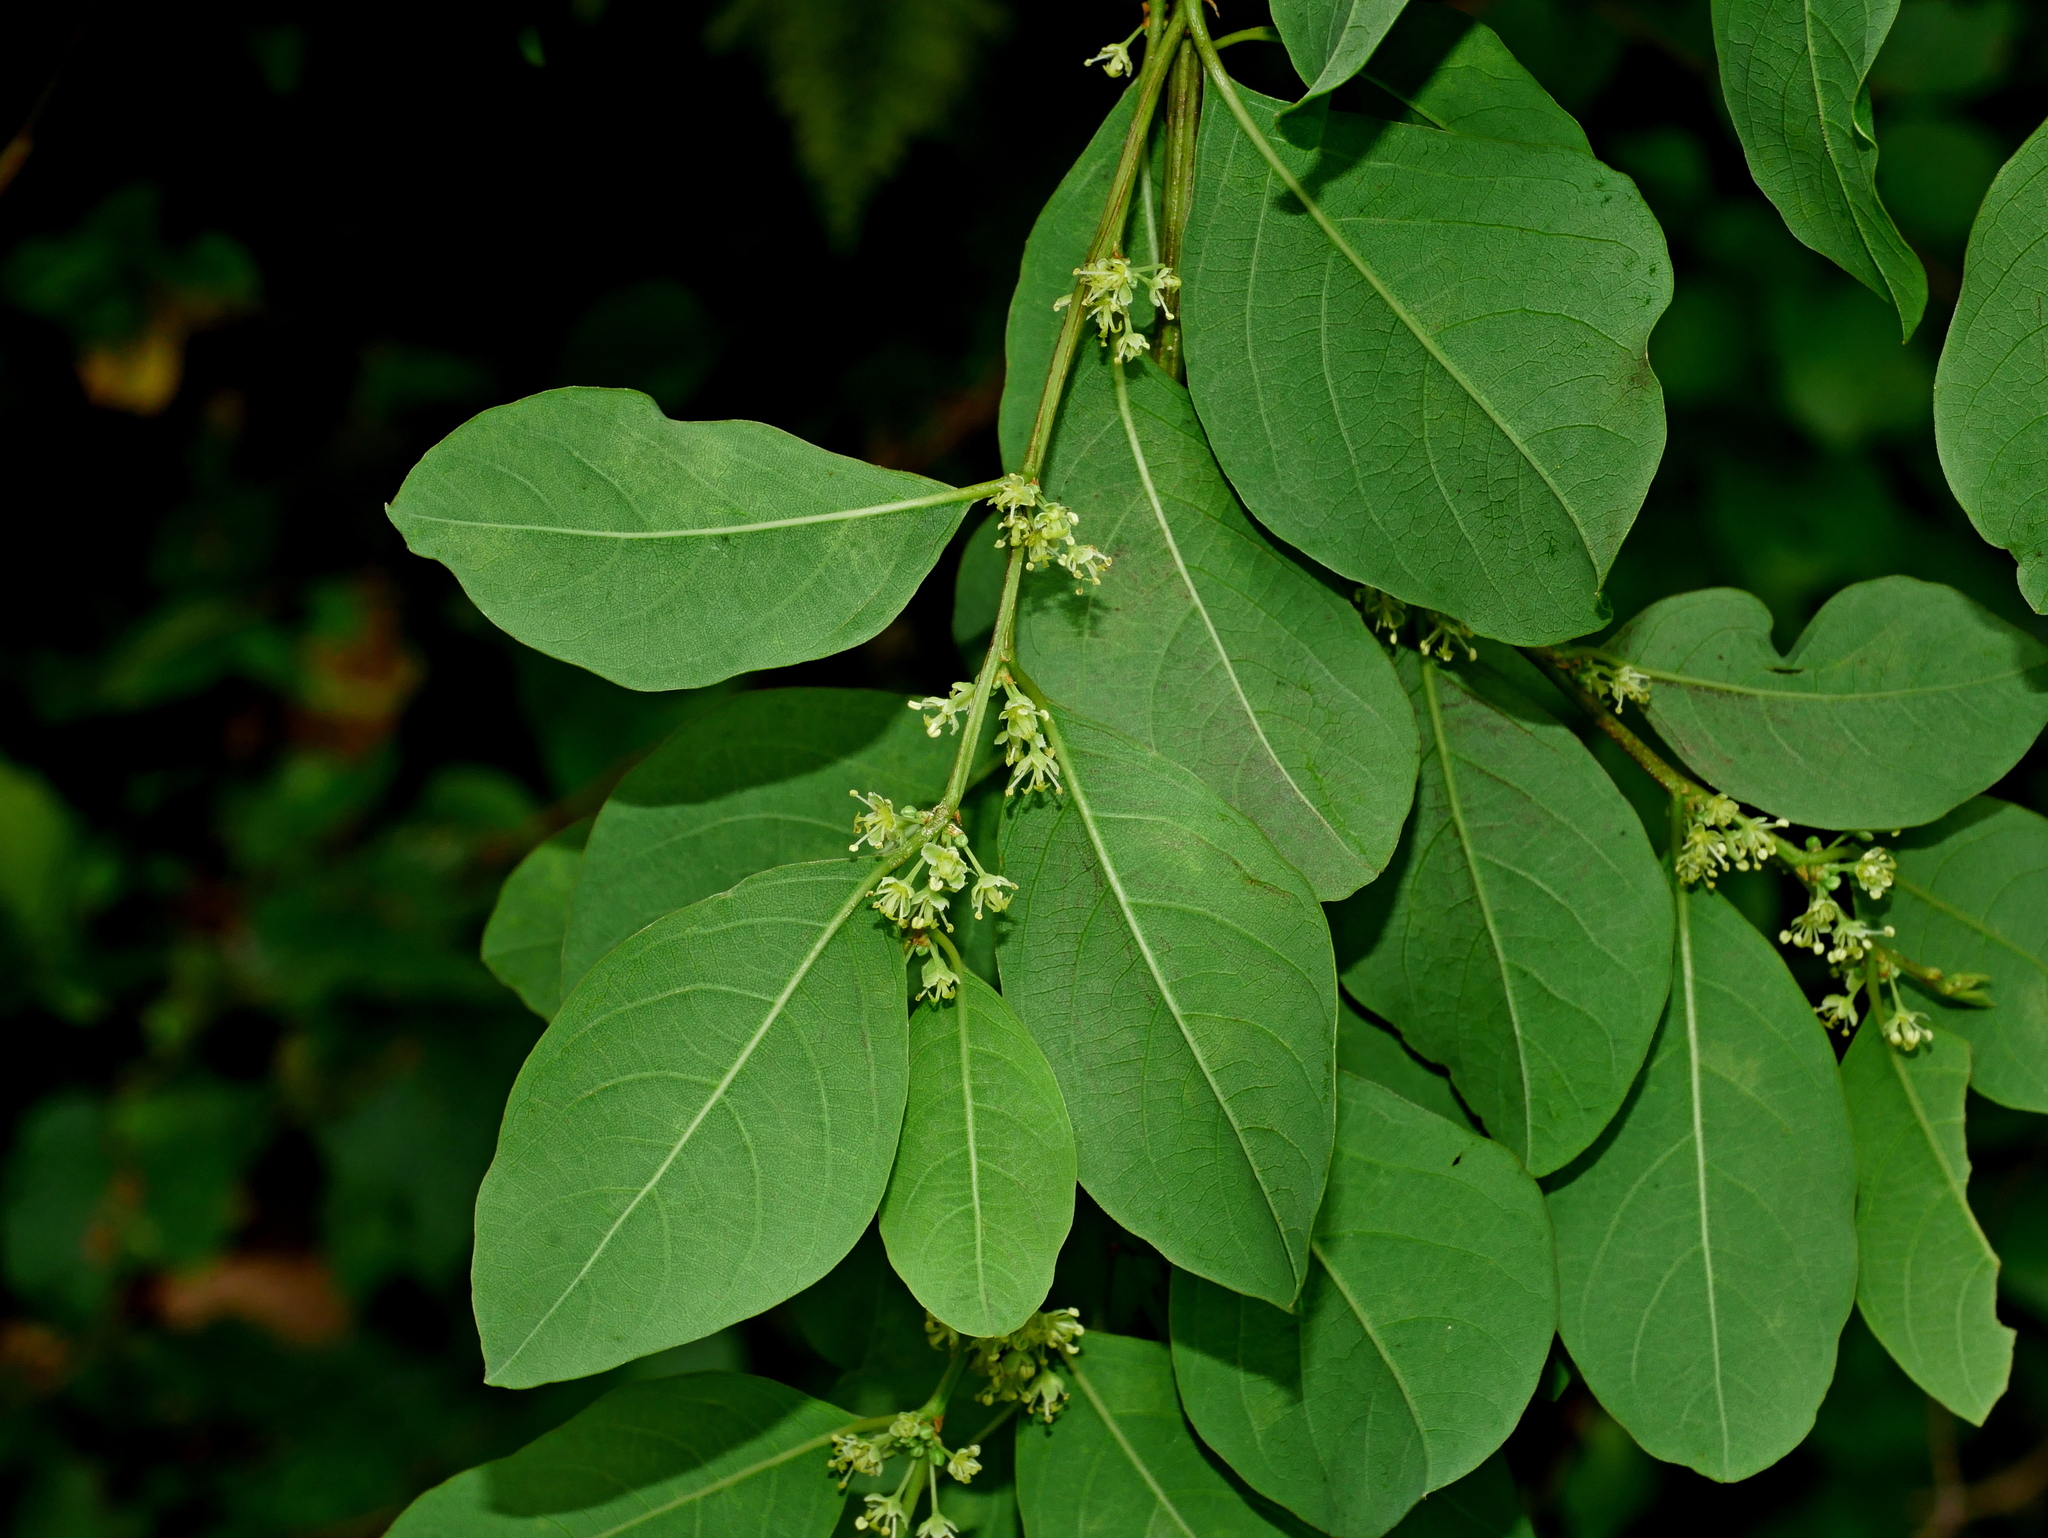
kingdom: Plantae
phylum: Tracheophyta
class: Magnoliopsida
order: Malpighiales
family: Phyllanthaceae
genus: Flueggea
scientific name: Flueggea virosa
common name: Common bushweed
